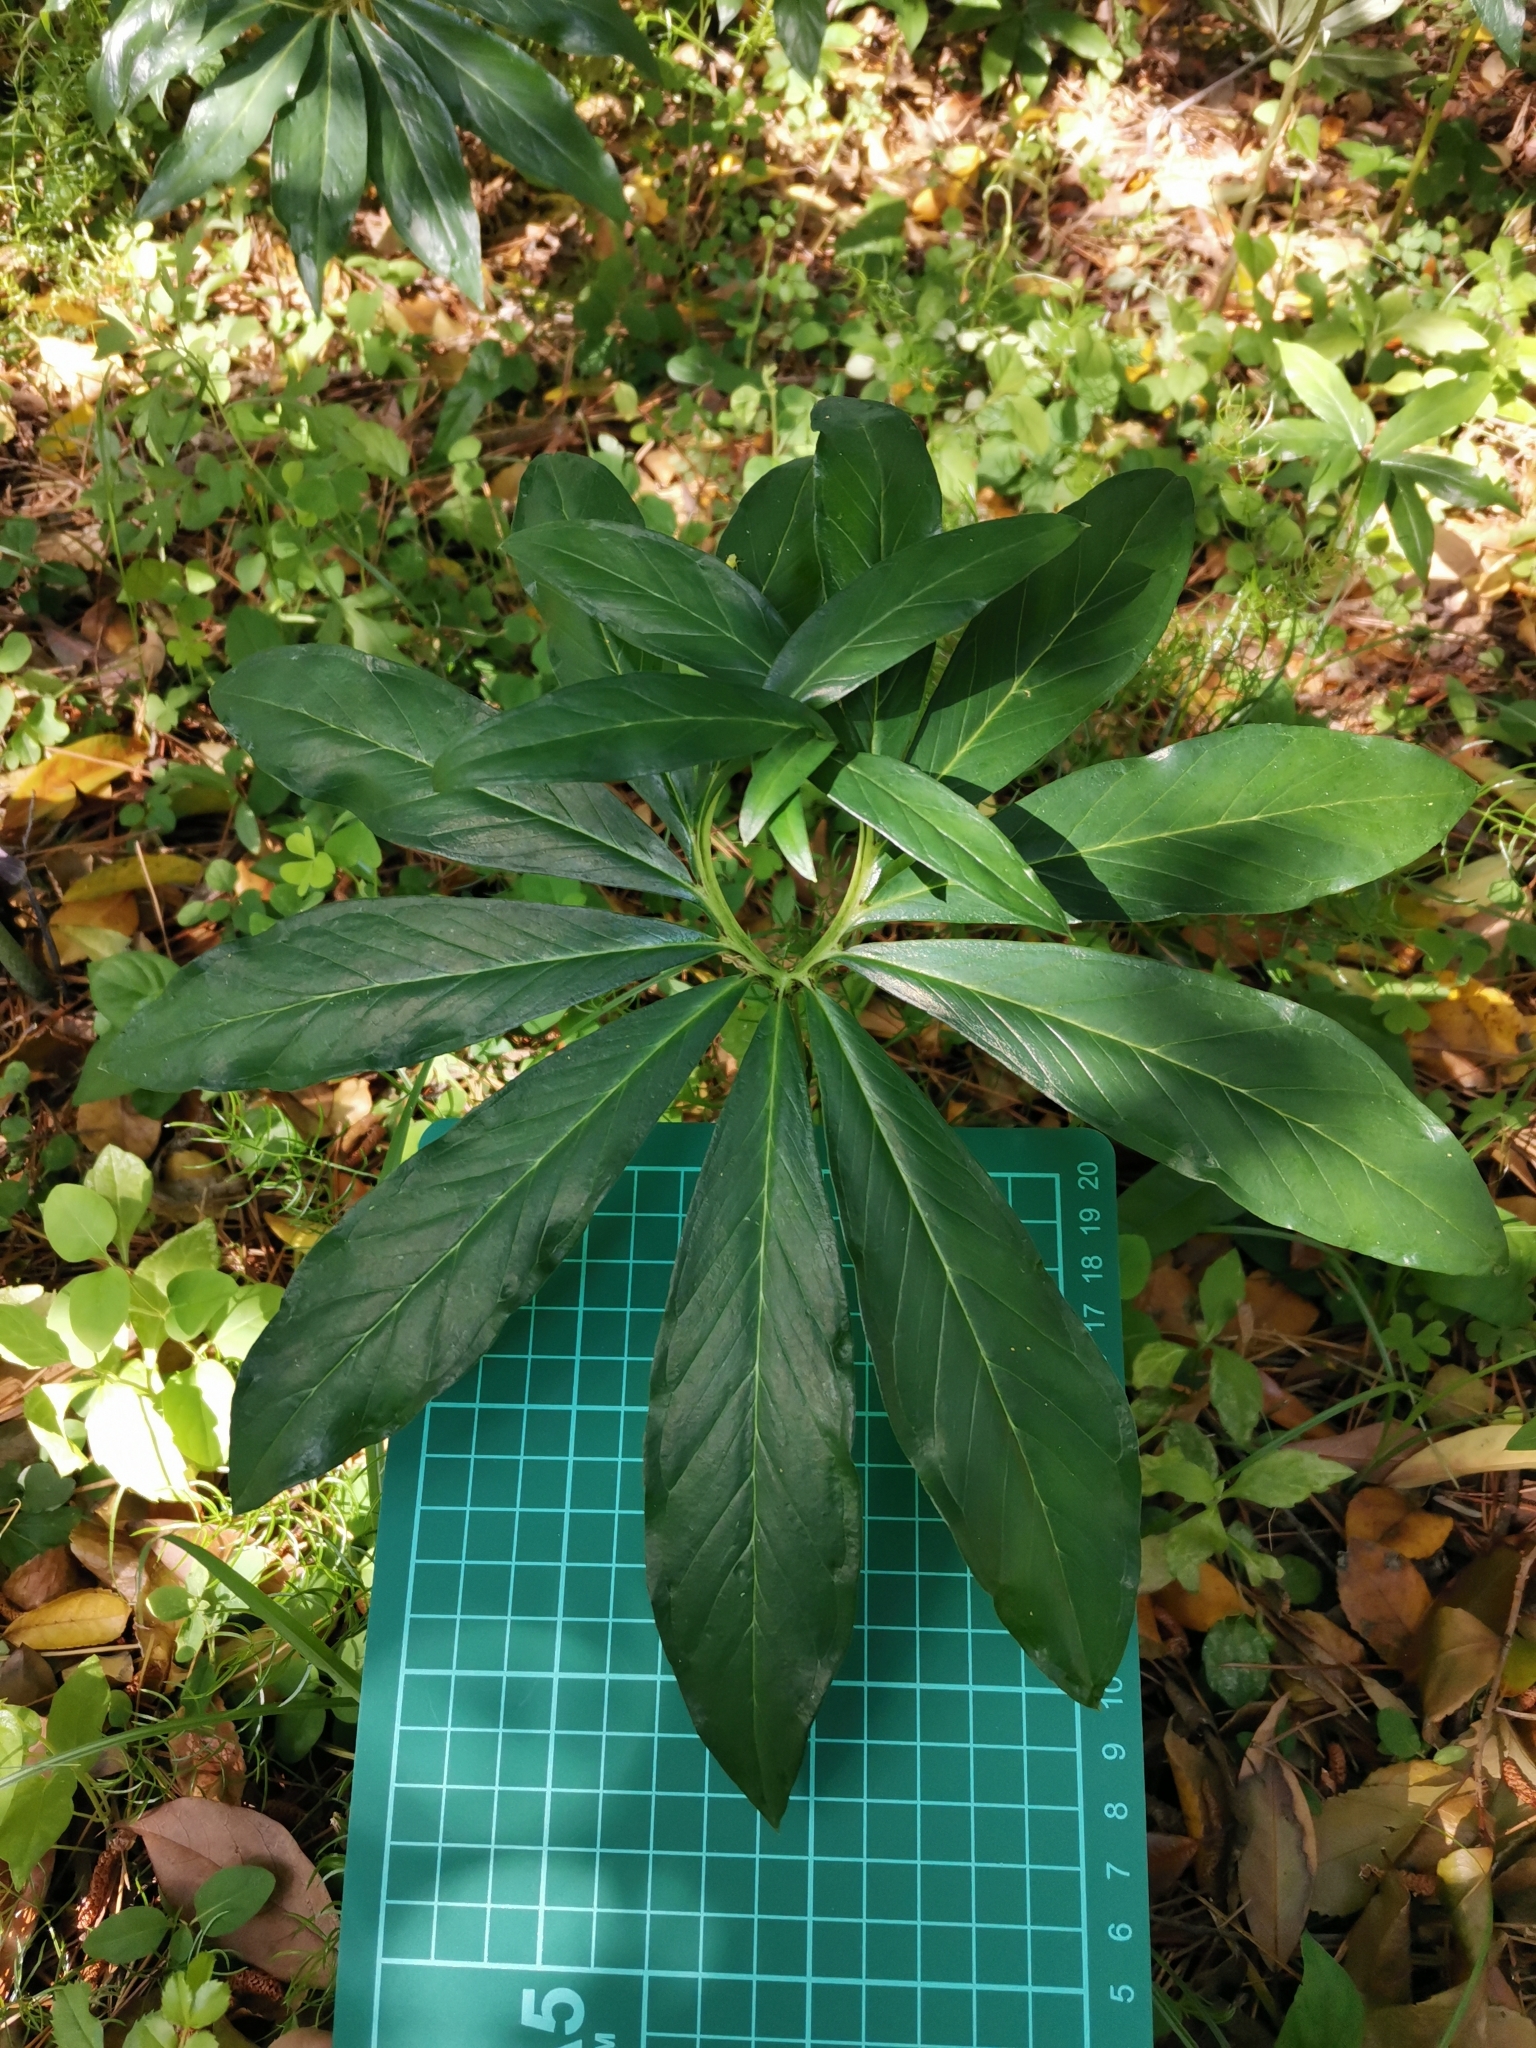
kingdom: Plantae
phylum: Tracheophyta
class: Liliopsida
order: Alismatales
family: Araceae
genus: Arisaema
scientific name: Arisaema thunbergii
